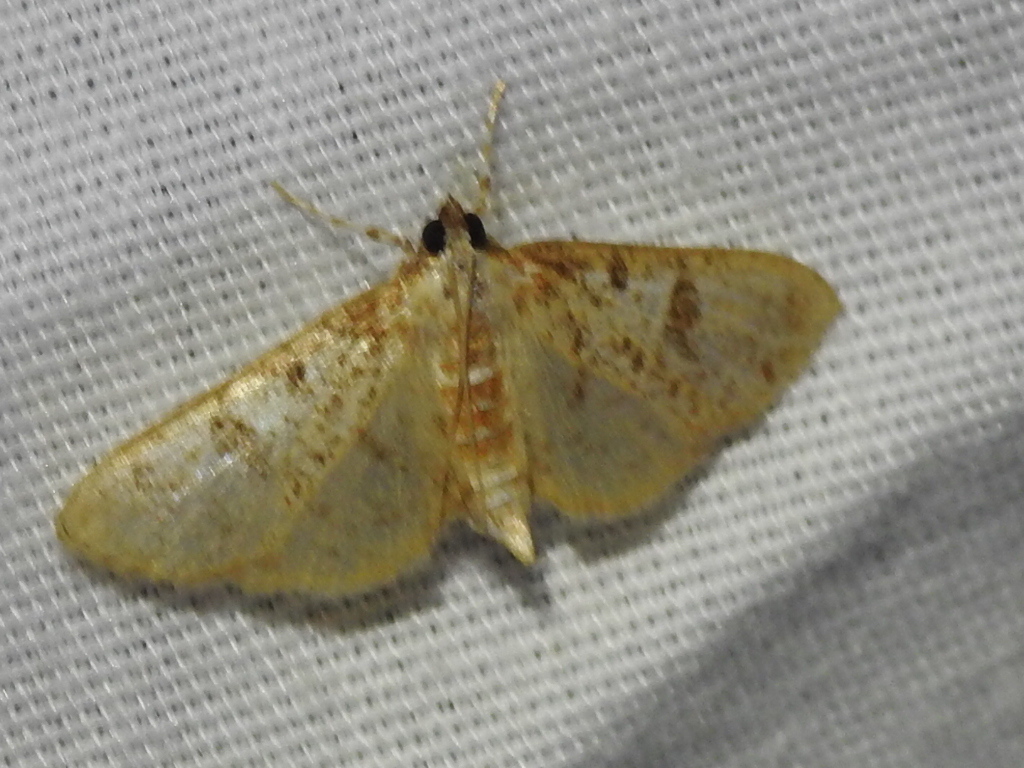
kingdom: Animalia
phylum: Arthropoda
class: Insecta
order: Lepidoptera
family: Crambidae
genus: Palpita
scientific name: Palpita freemanalis
